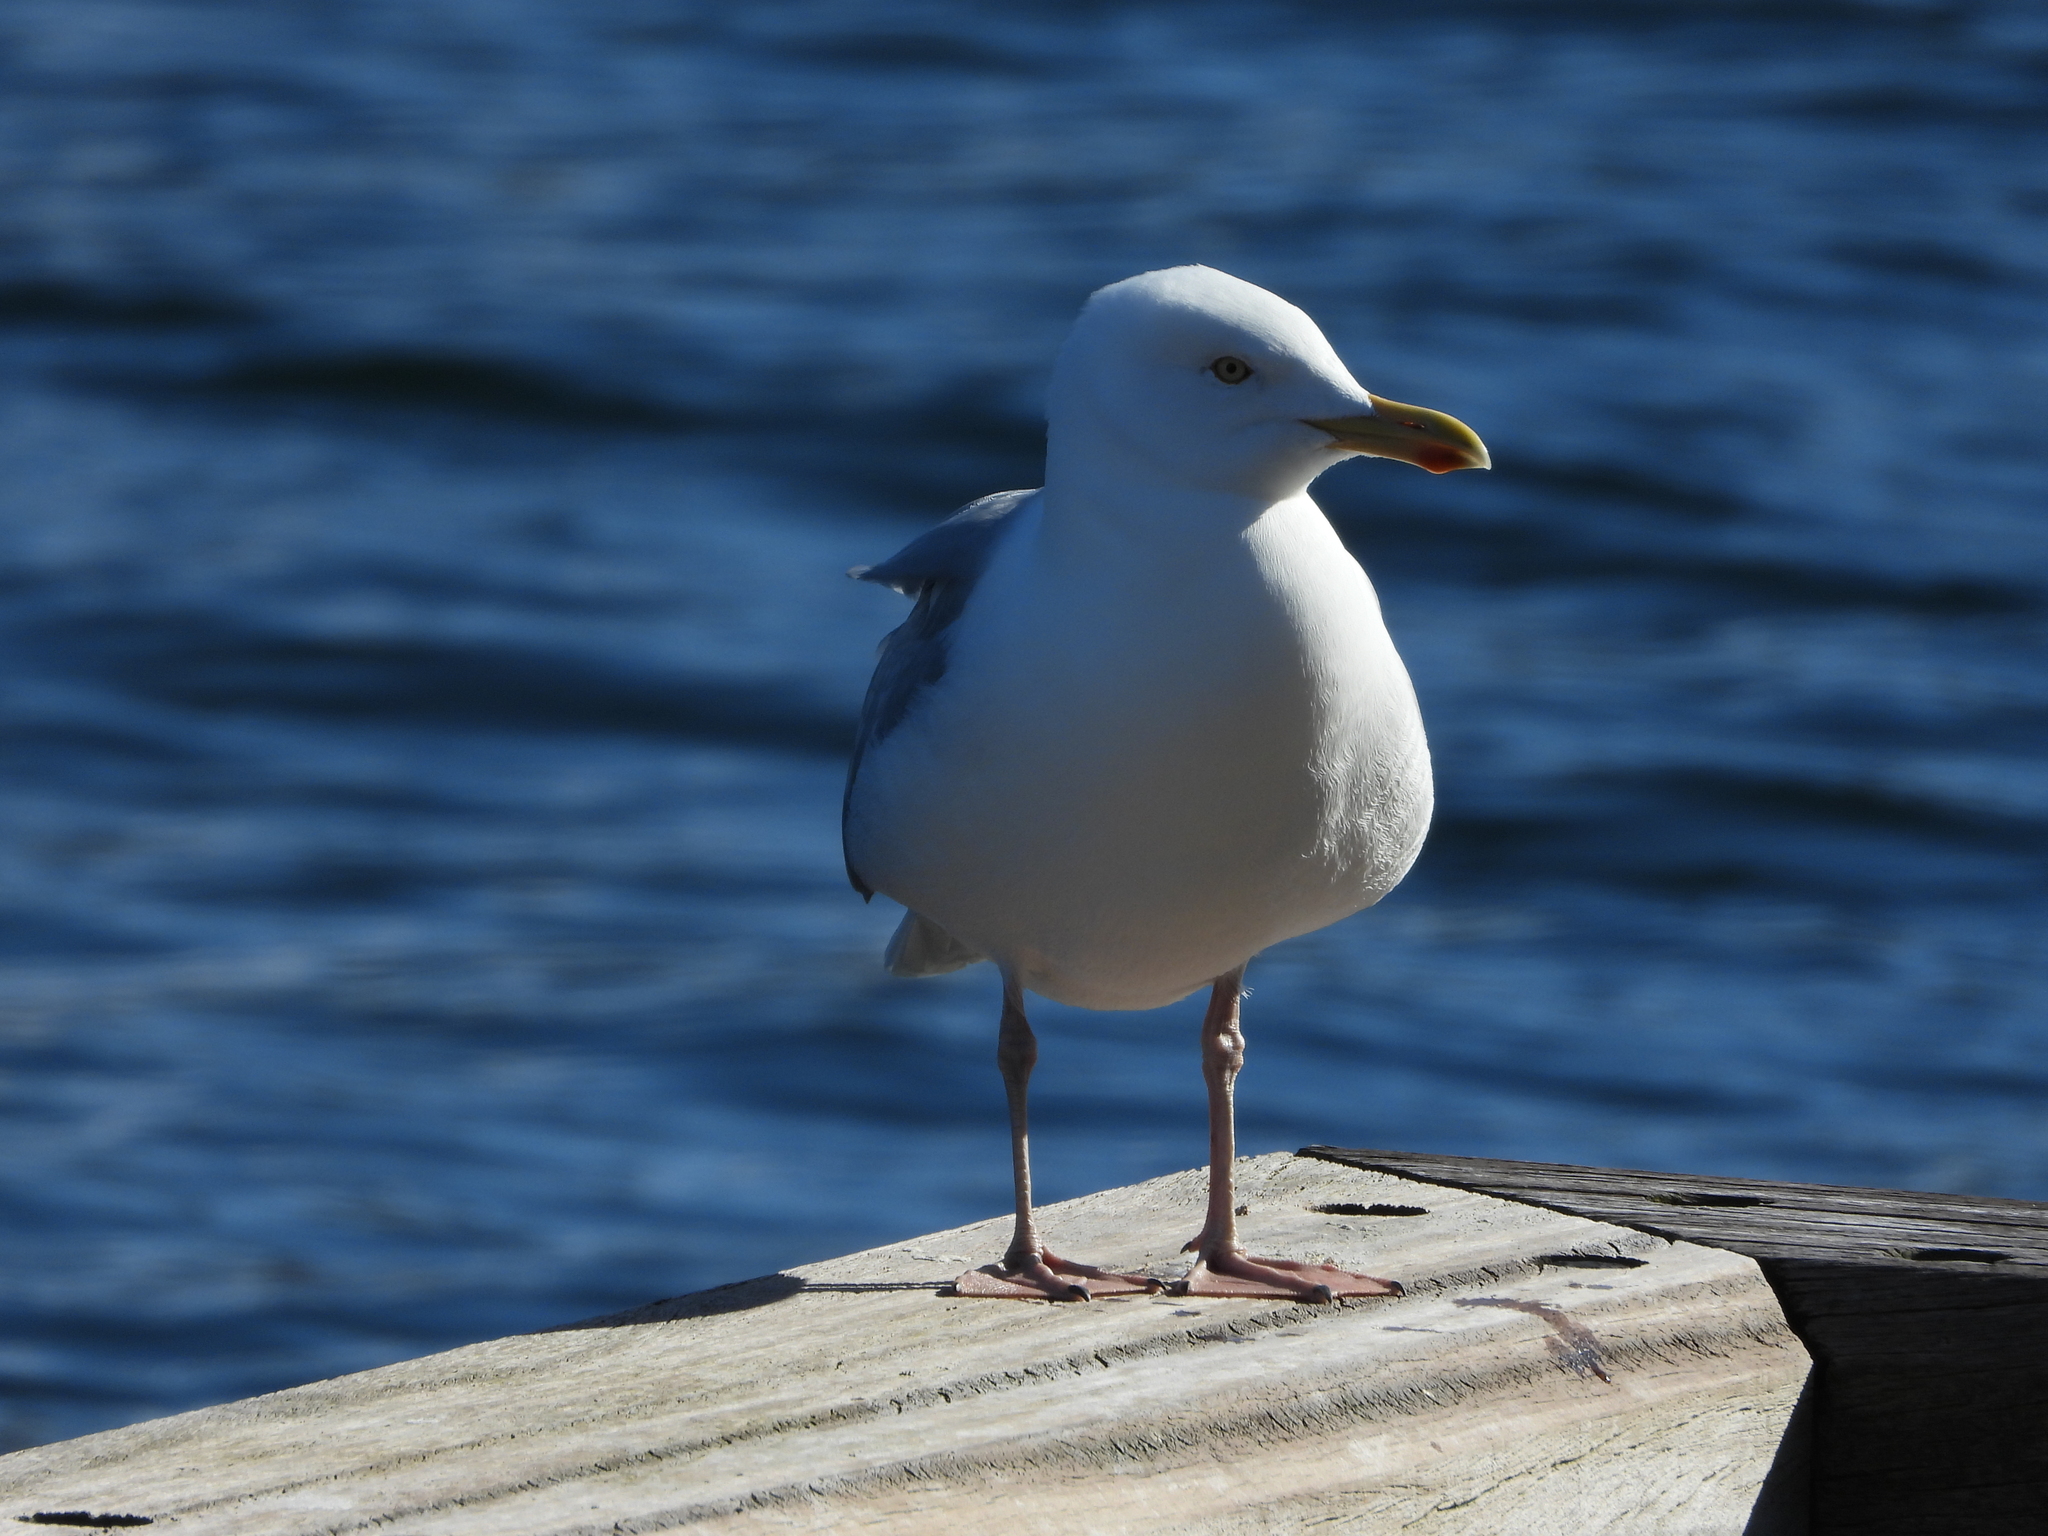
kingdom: Animalia
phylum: Chordata
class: Aves
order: Charadriiformes
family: Laridae
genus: Larus
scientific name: Larus argentatus
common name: Herring gull
